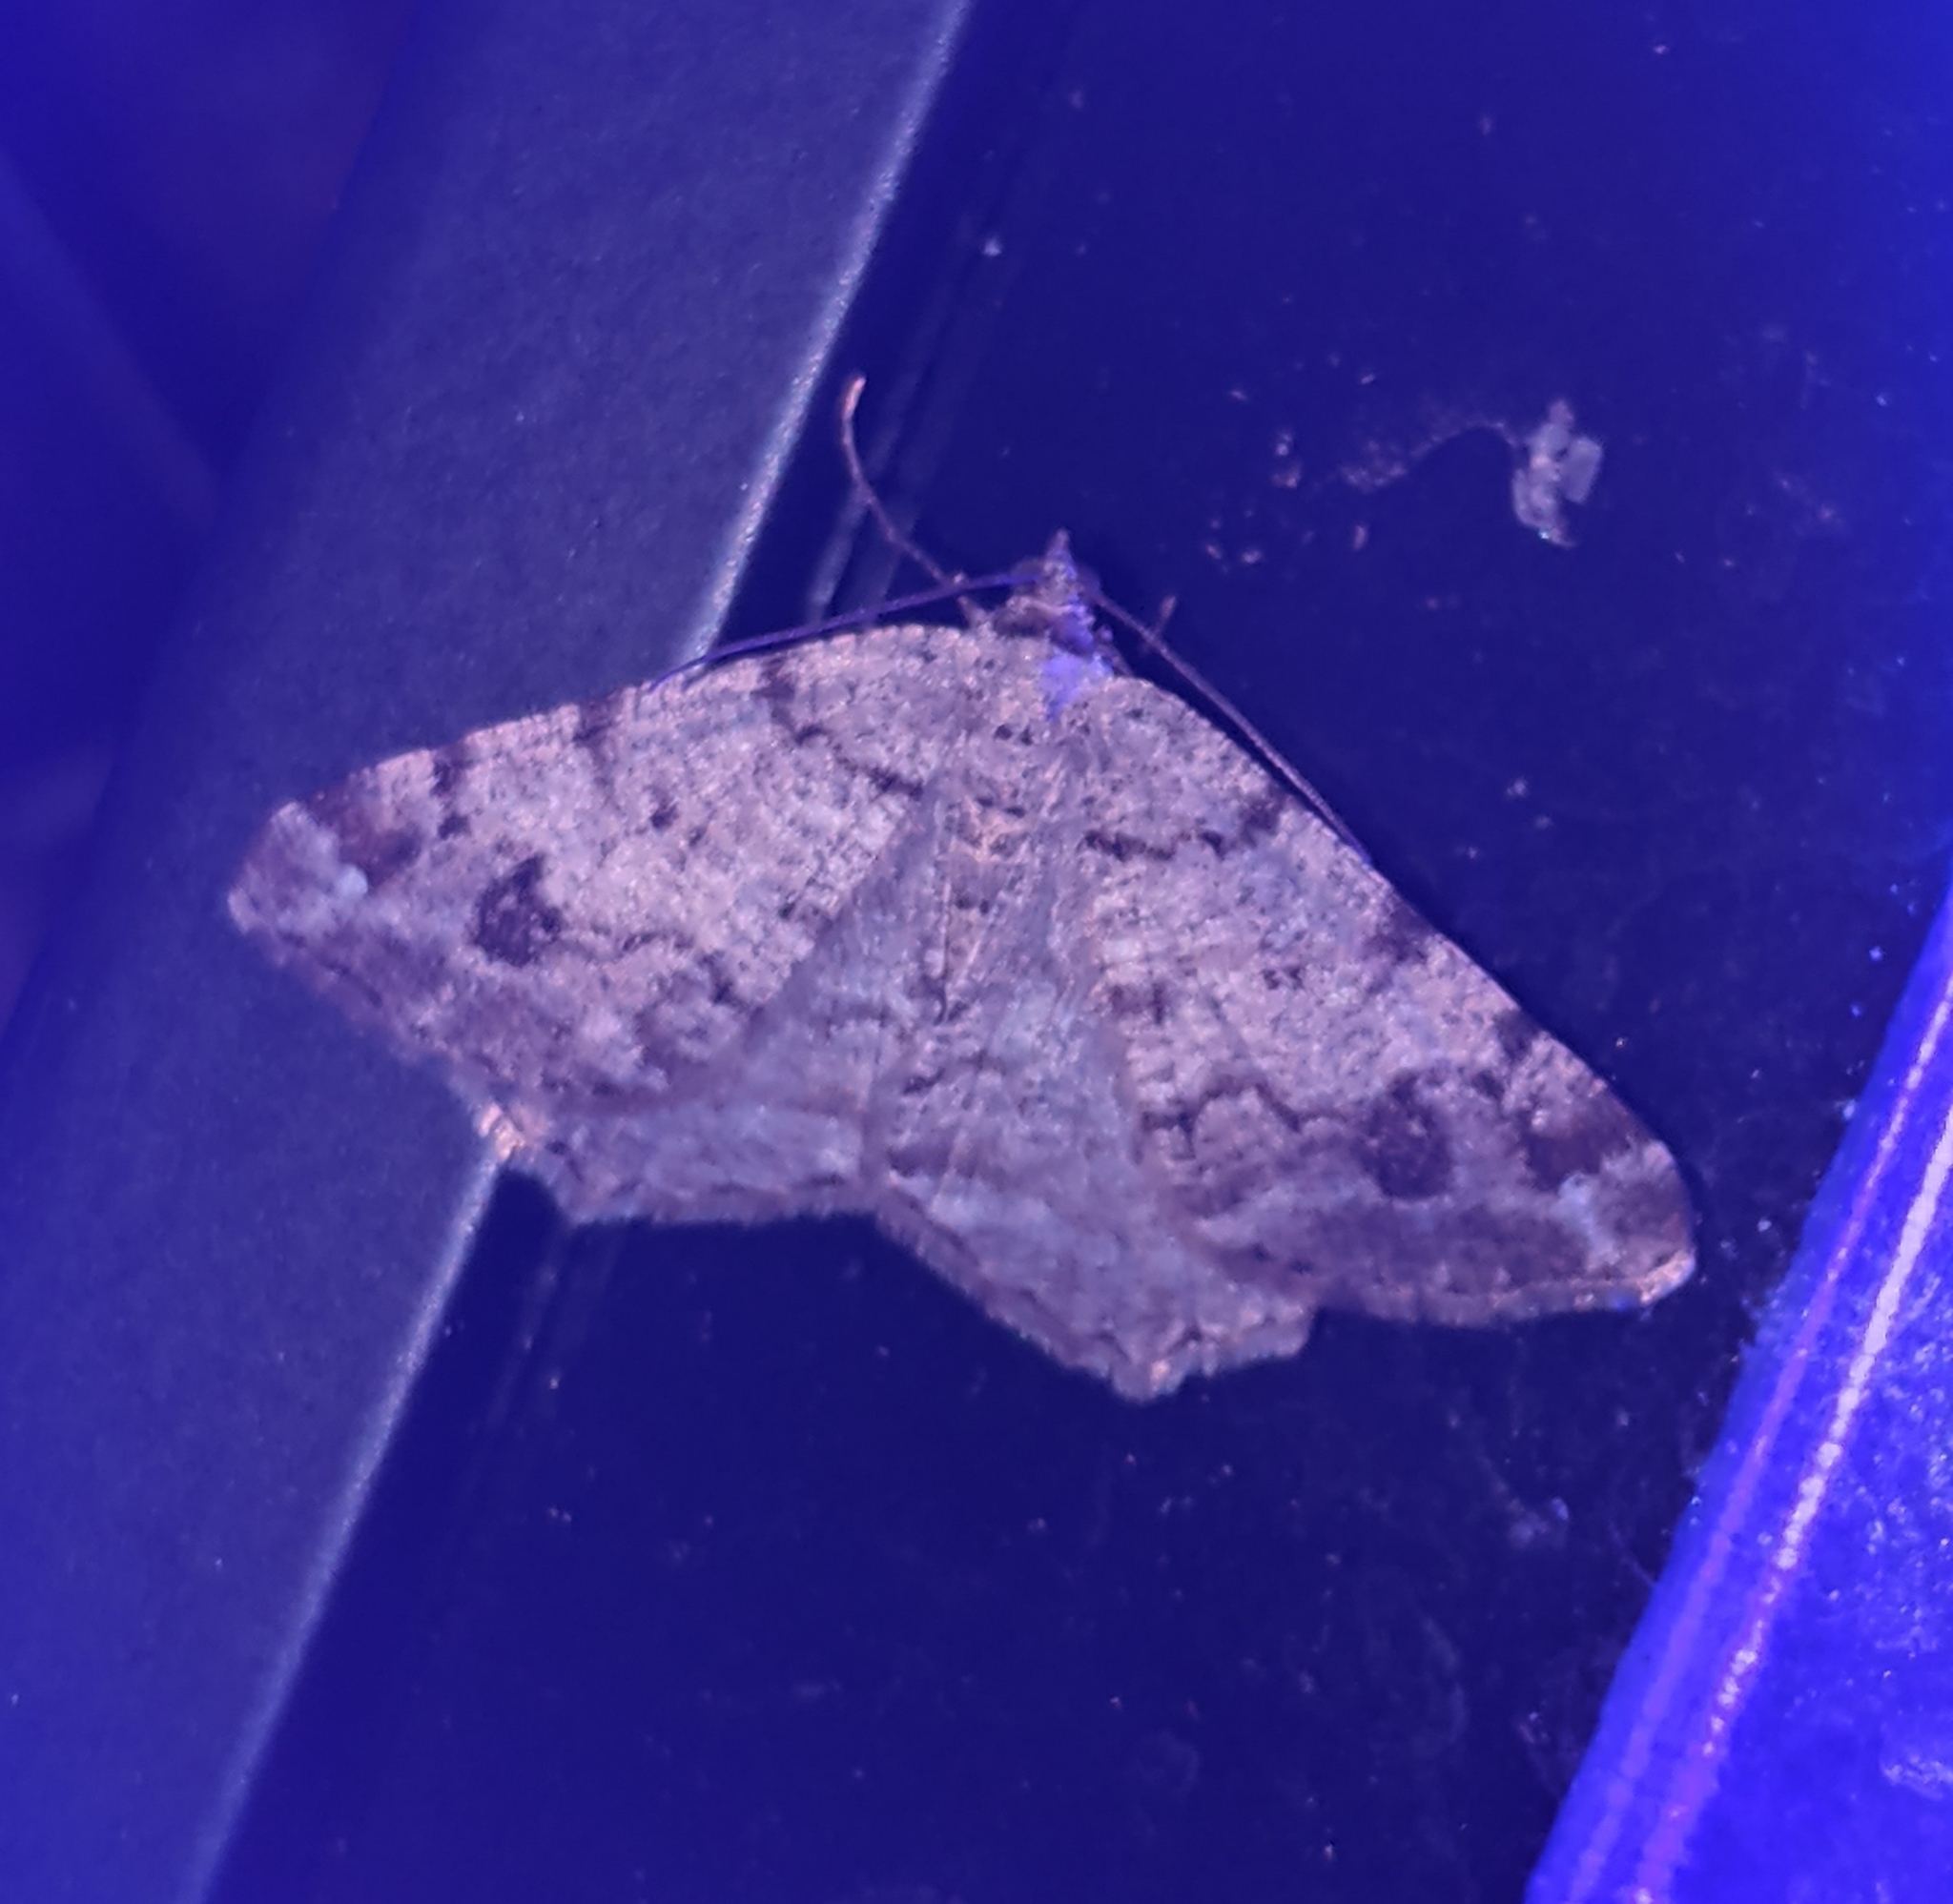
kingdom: Animalia
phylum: Arthropoda
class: Insecta
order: Lepidoptera
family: Geometridae
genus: Macaria
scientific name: Macaria signaria
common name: Dusky peacock
